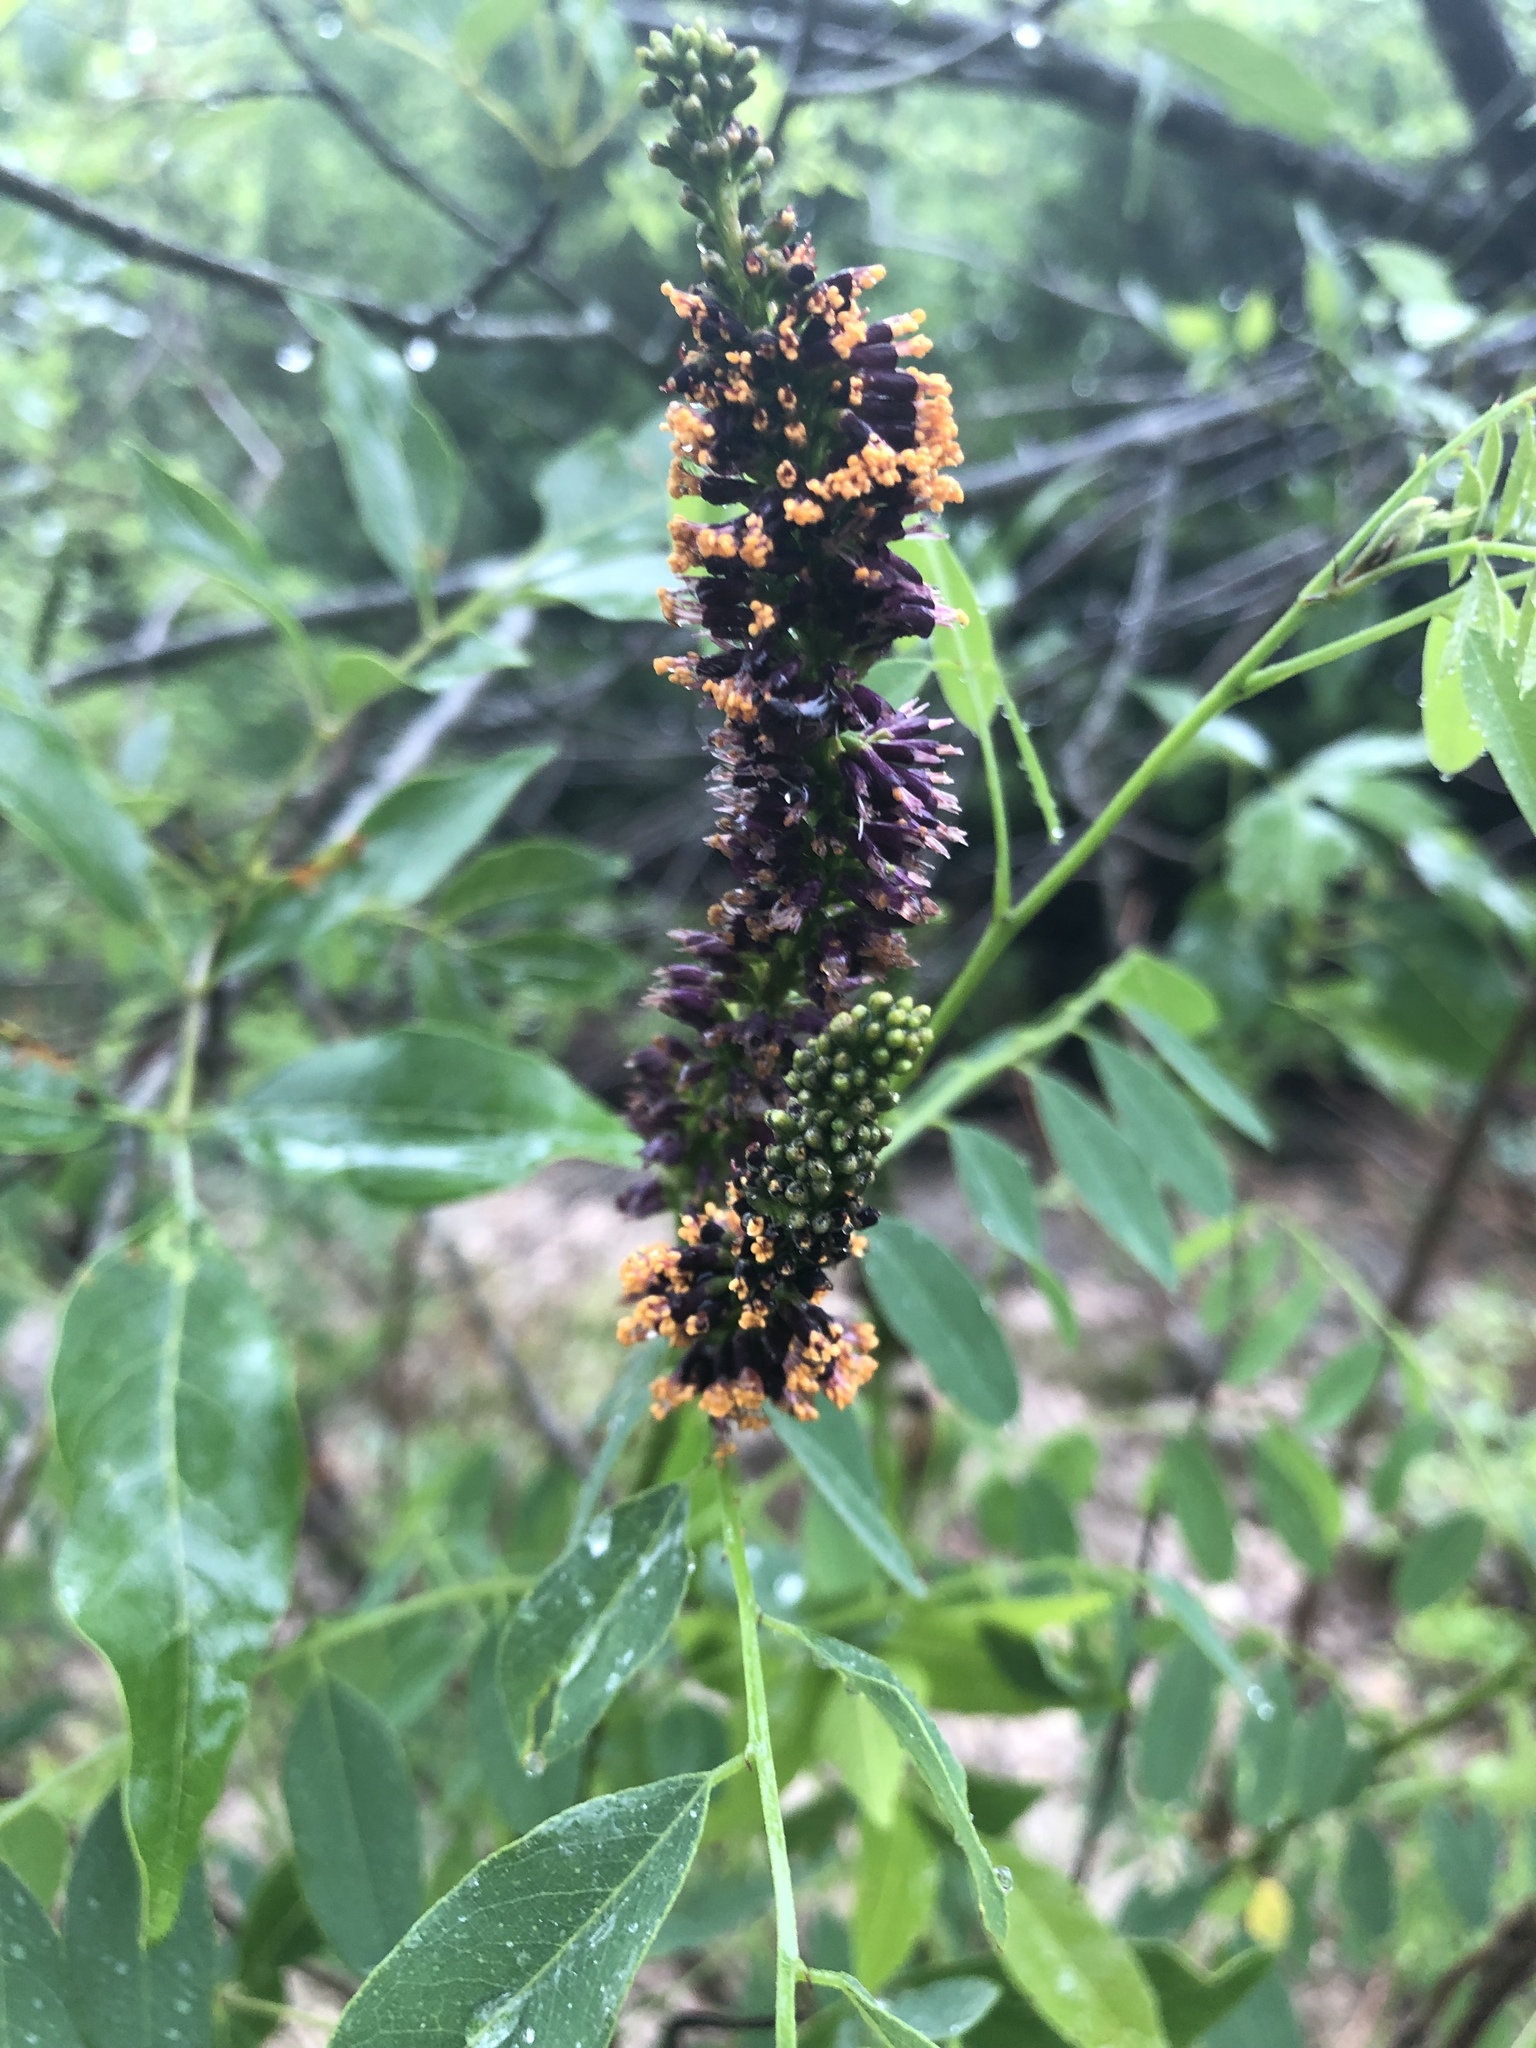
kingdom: Plantae
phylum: Tracheophyta
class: Magnoliopsida
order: Fabales
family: Fabaceae
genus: Amorpha
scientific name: Amorpha fruticosa
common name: False indigo
